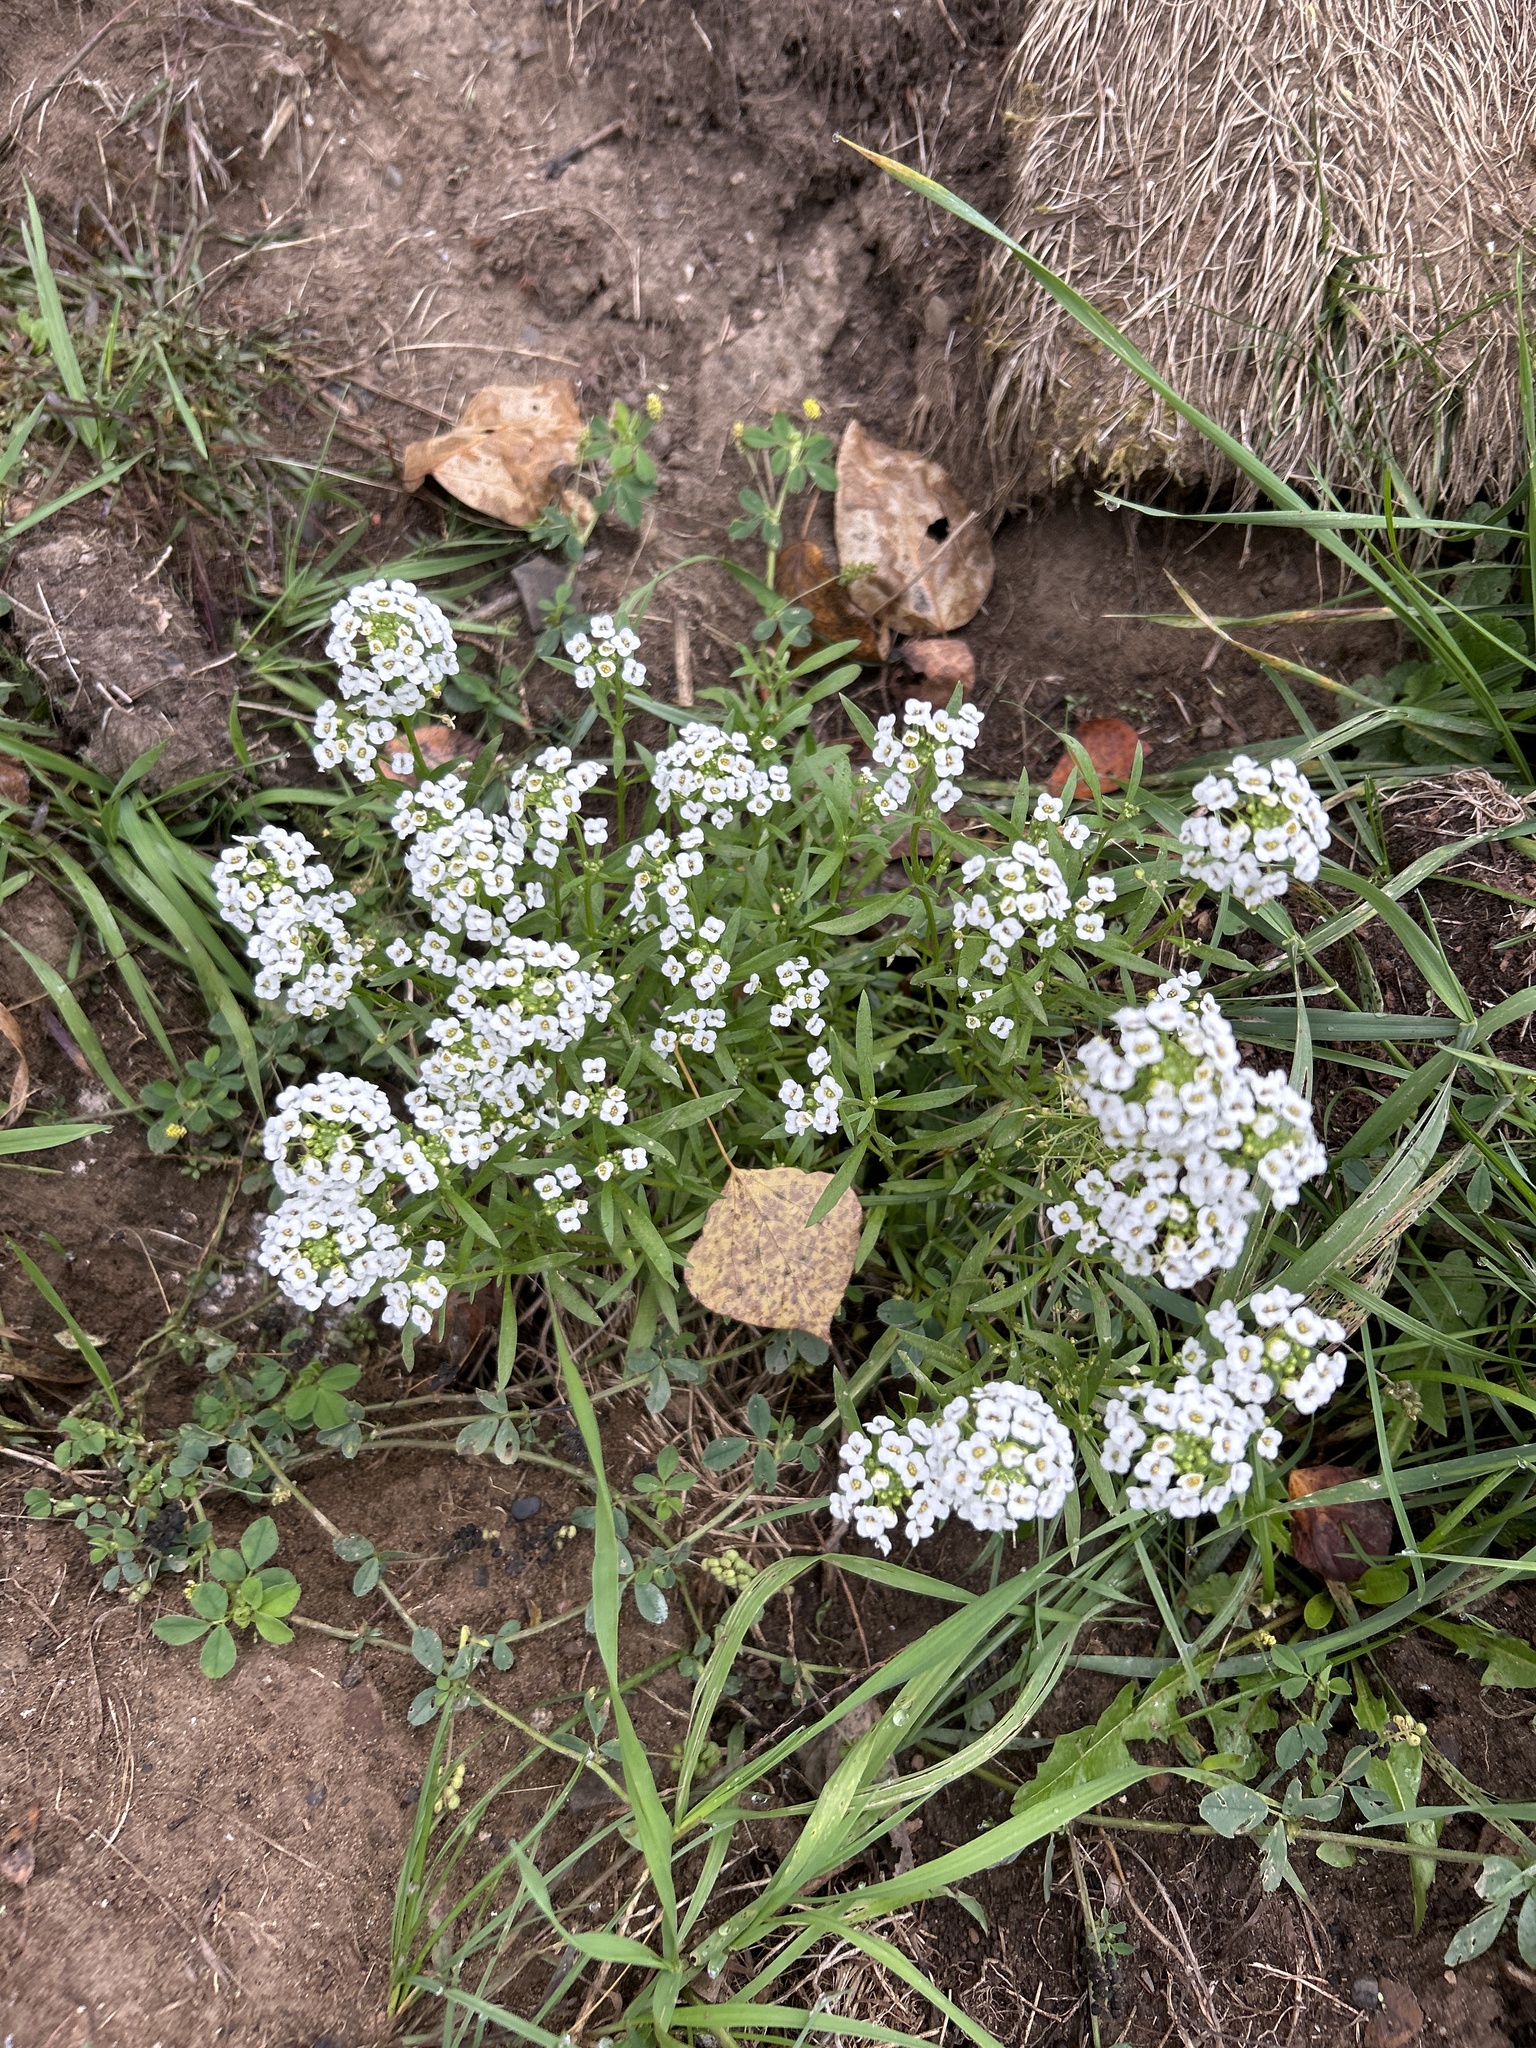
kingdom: Plantae
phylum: Tracheophyta
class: Magnoliopsida
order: Brassicales
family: Brassicaceae
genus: Lobularia
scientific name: Lobularia maritima
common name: Sweet alison
